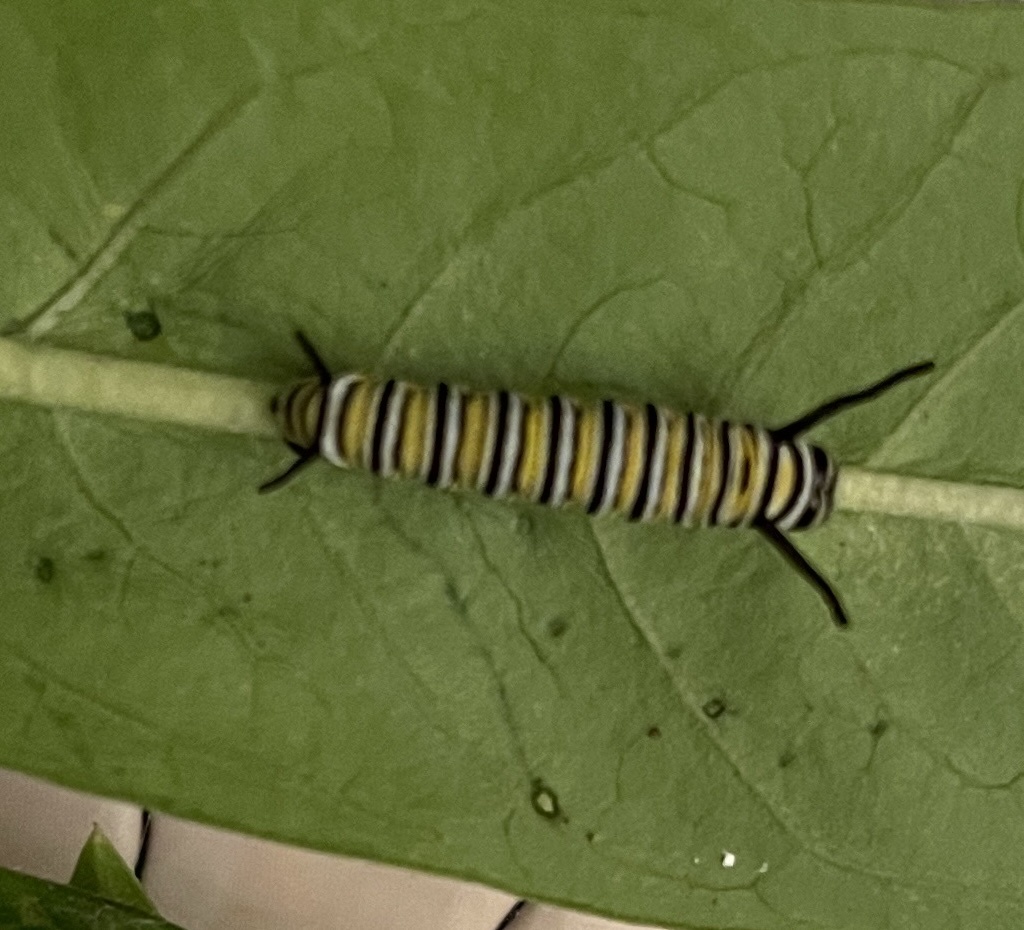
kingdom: Animalia
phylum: Arthropoda
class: Insecta
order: Lepidoptera
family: Nymphalidae
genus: Danaus
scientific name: Danaus plexippus
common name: Monarch
